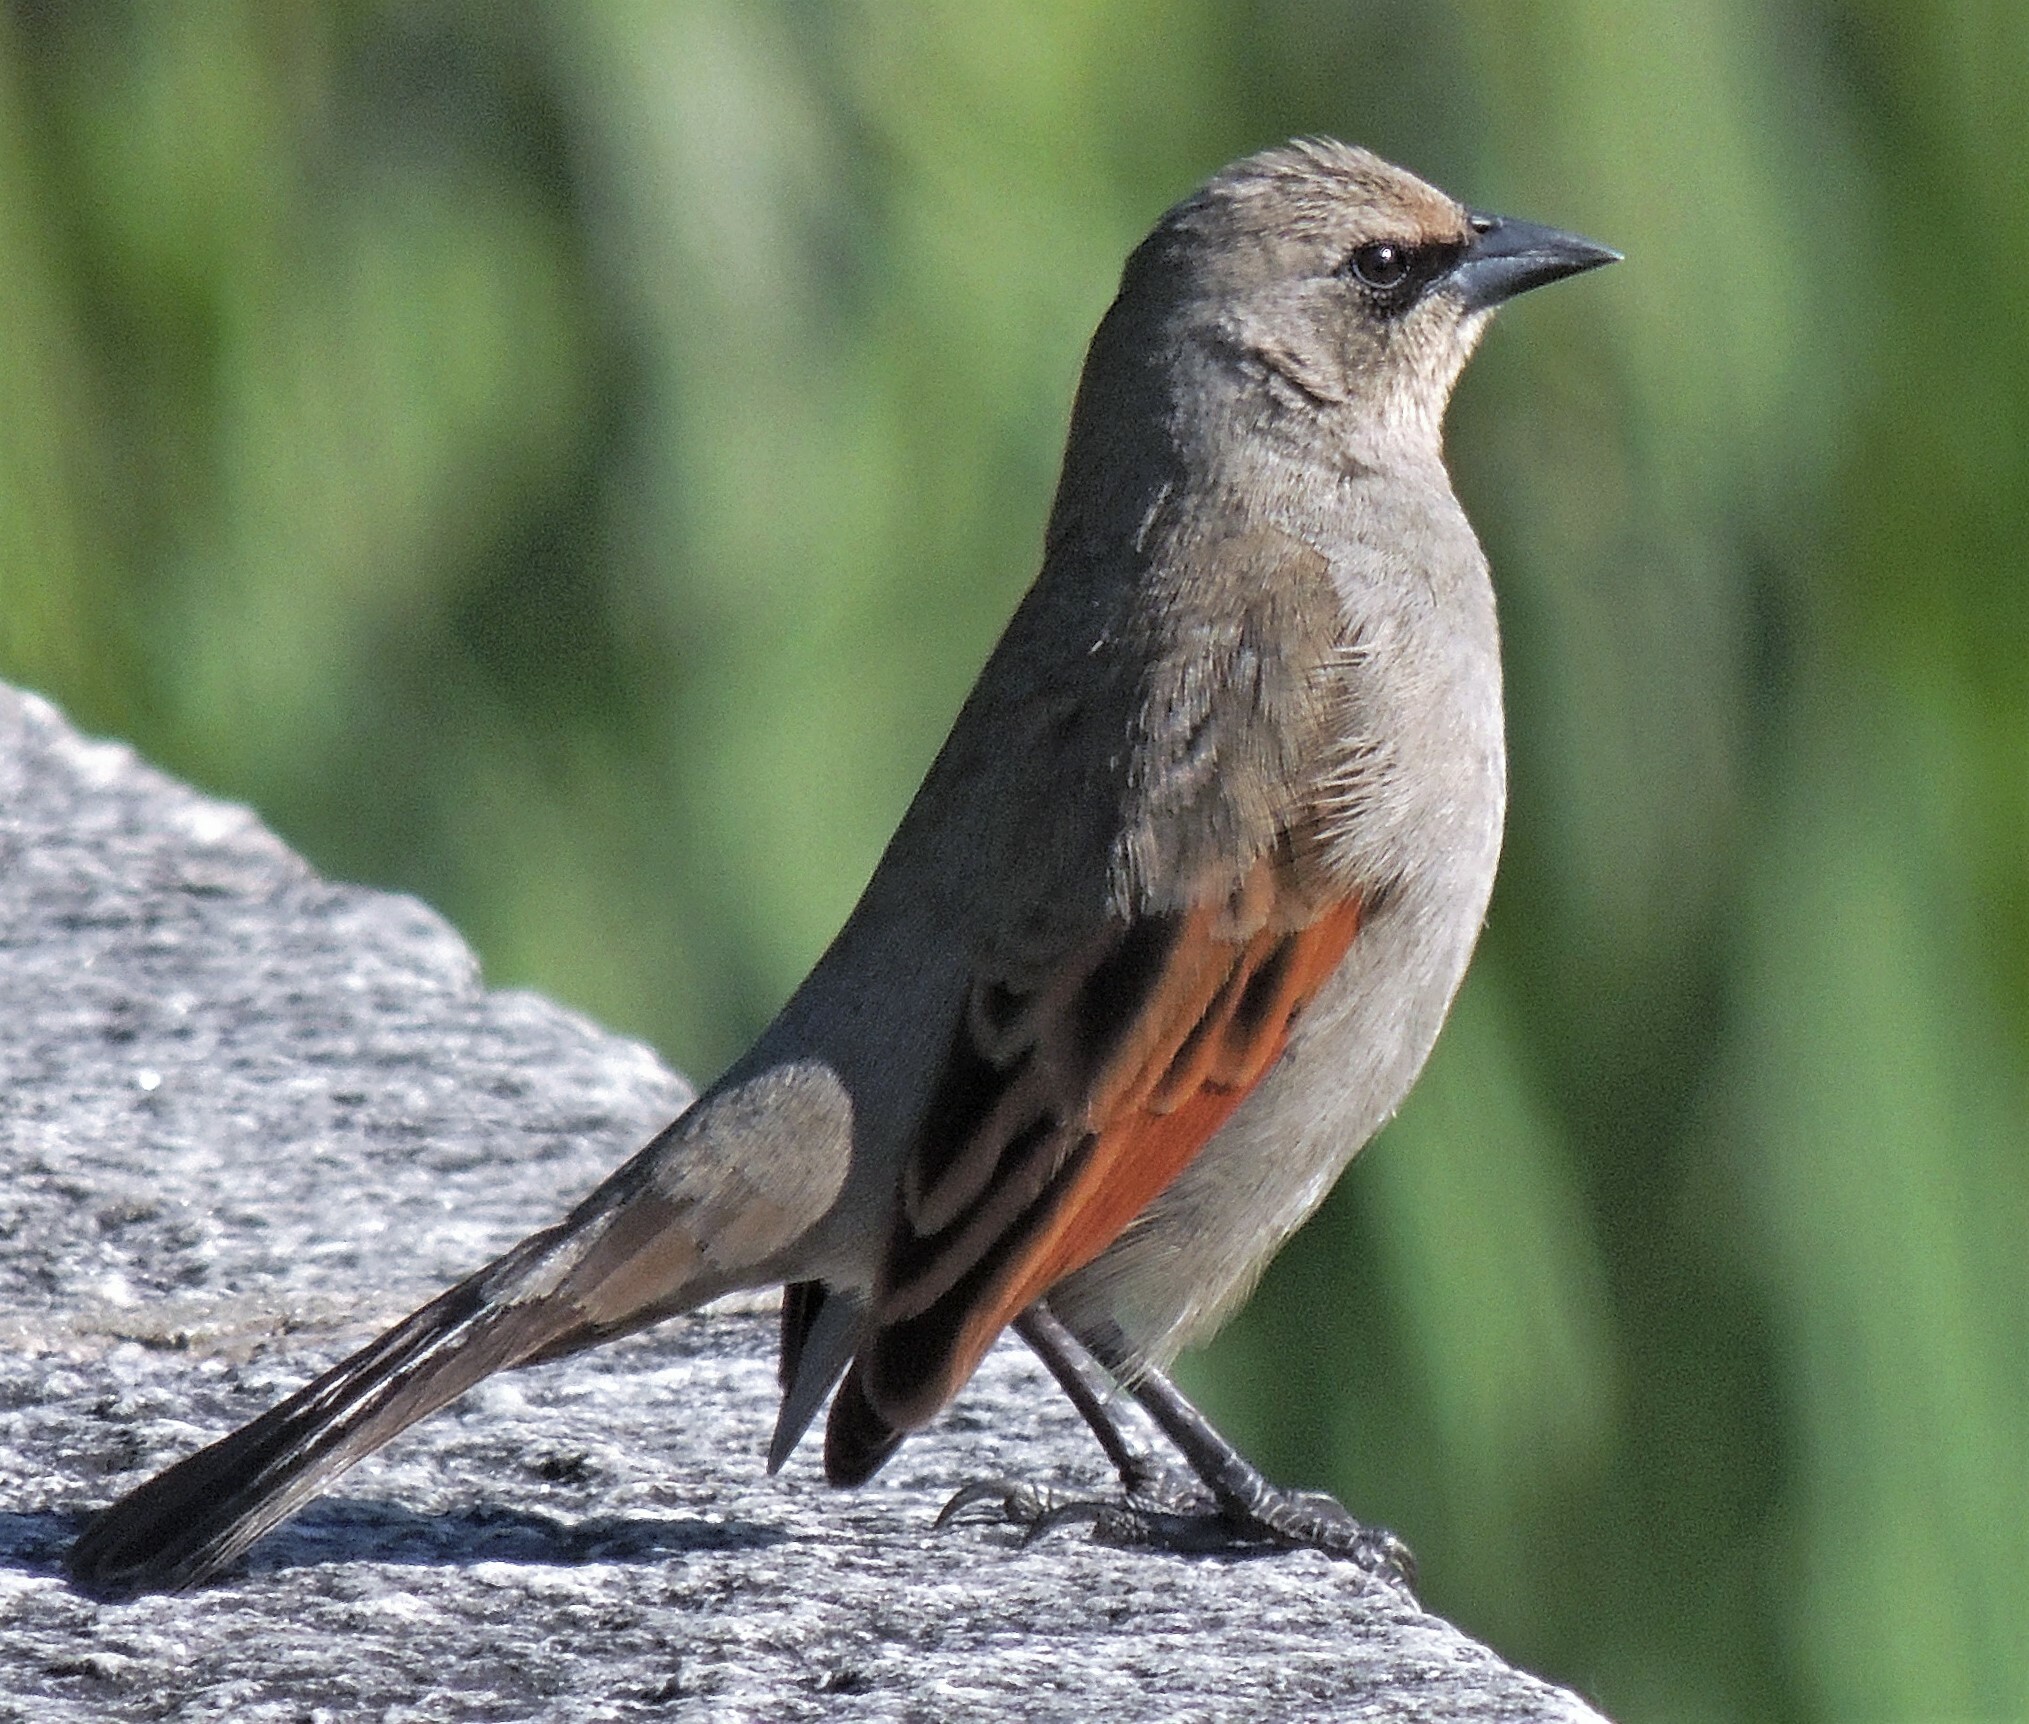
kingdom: Animalia
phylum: Chordata
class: Aves
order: Passeriformes
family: Icteridae
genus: Agelaioides
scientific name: Agelaioides badius
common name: Baywing
